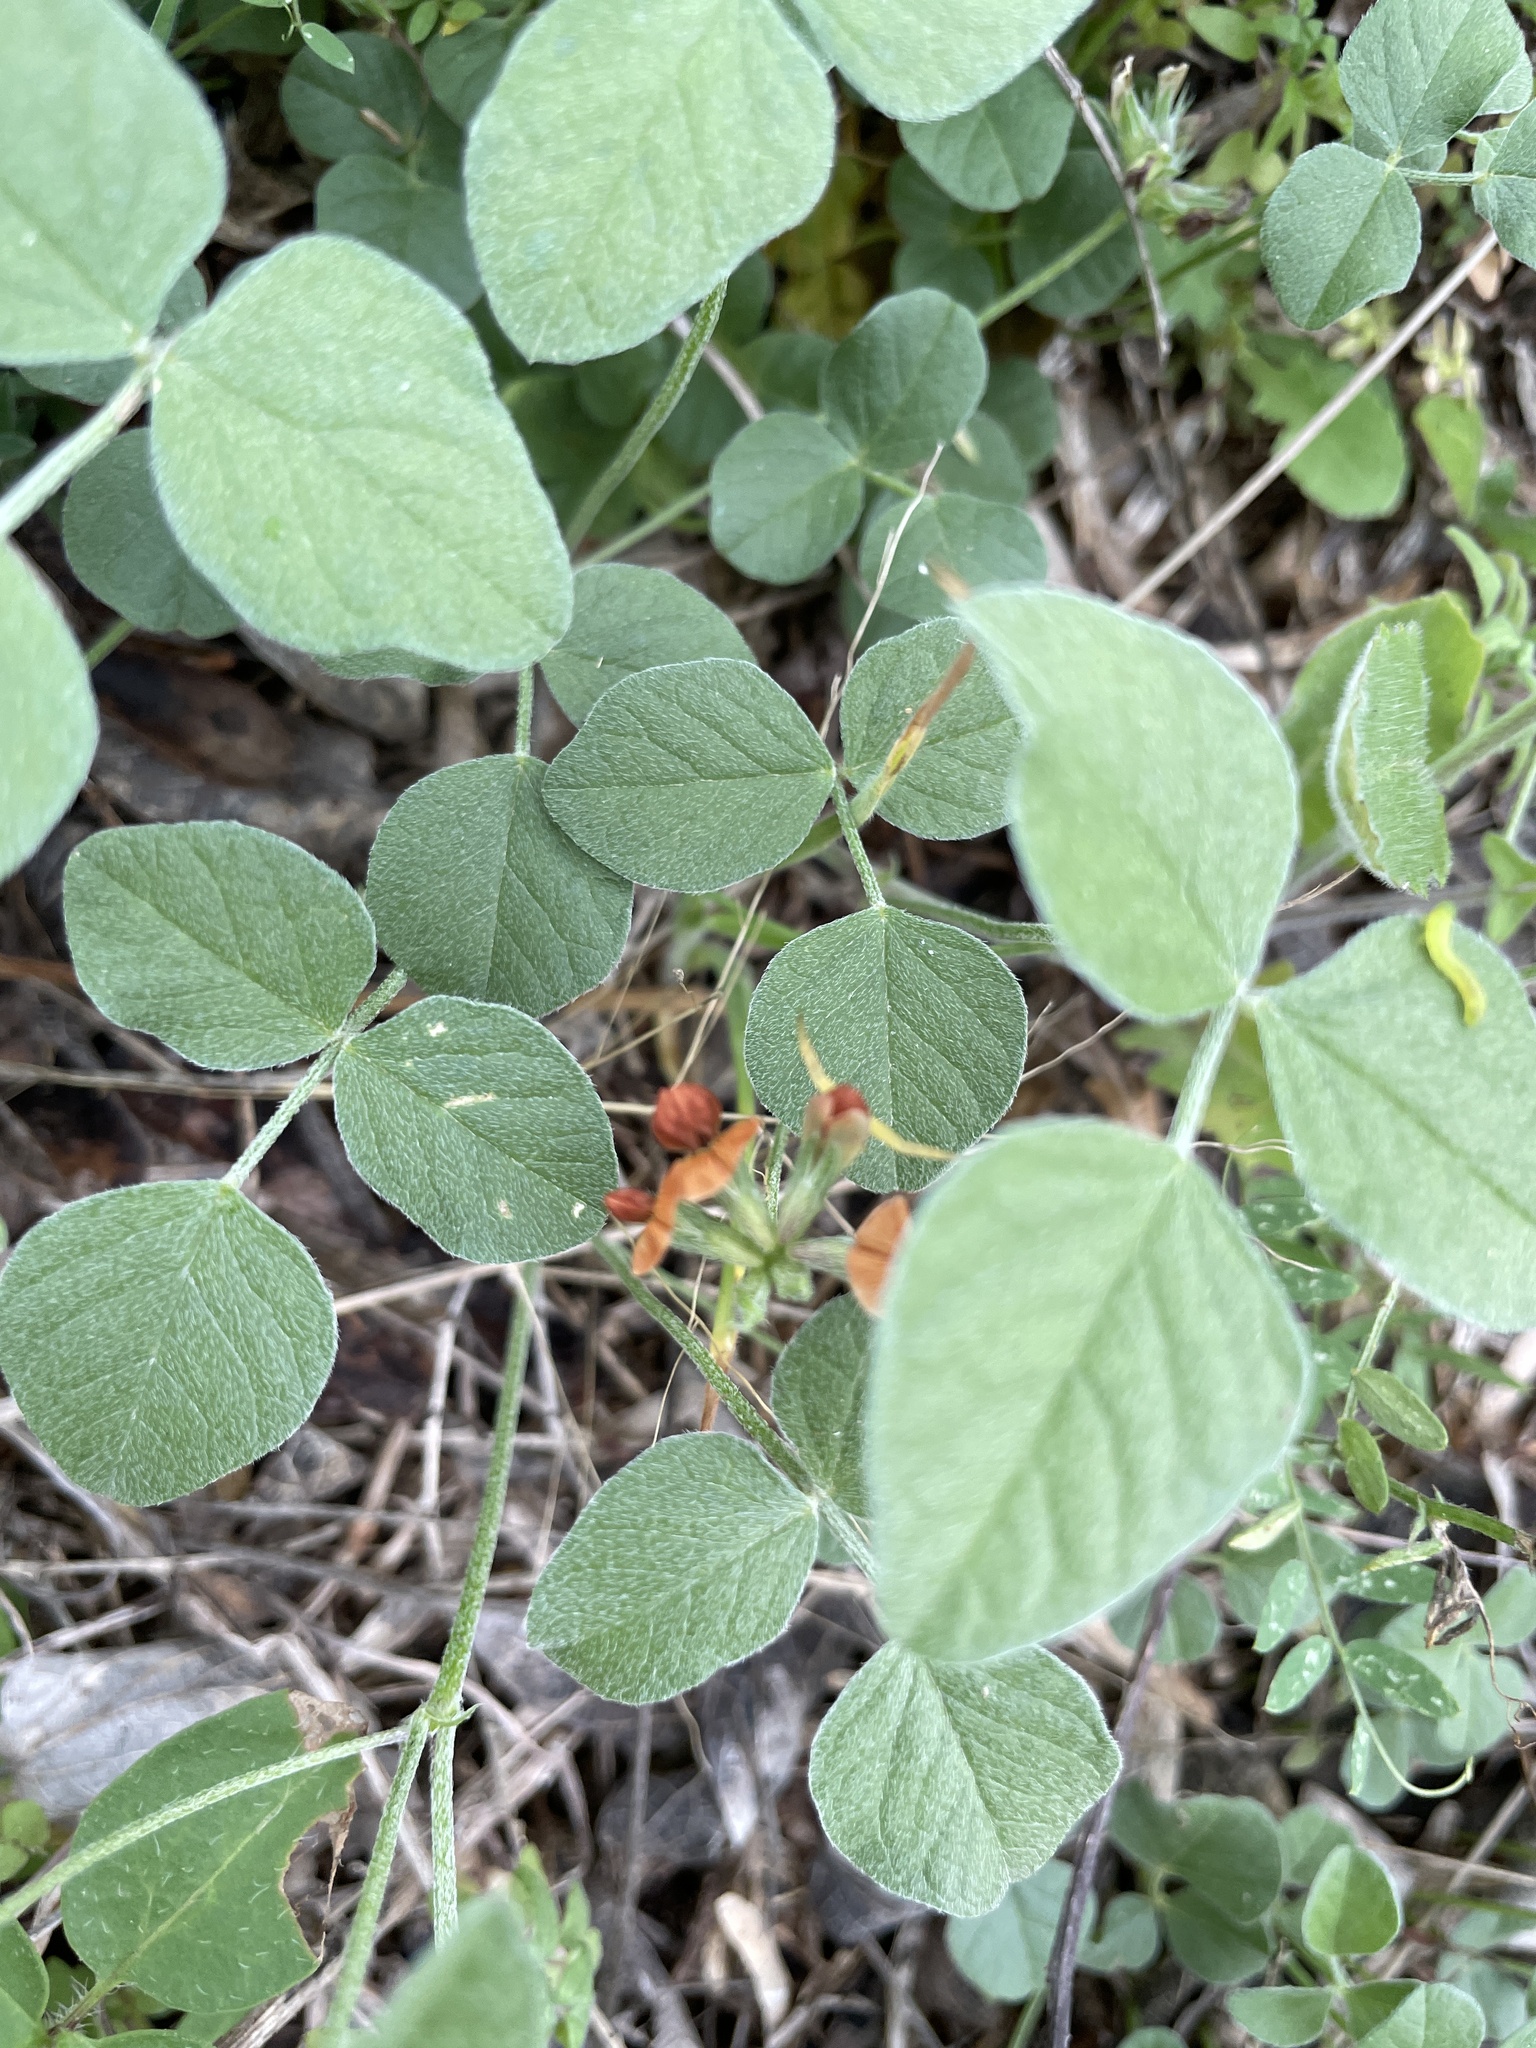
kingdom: Plantae
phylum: Tracheophyta
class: Magnoliopsida
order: Fabales
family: Fabaceae
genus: Pediomelum
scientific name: Pediomelum rhombifolium
